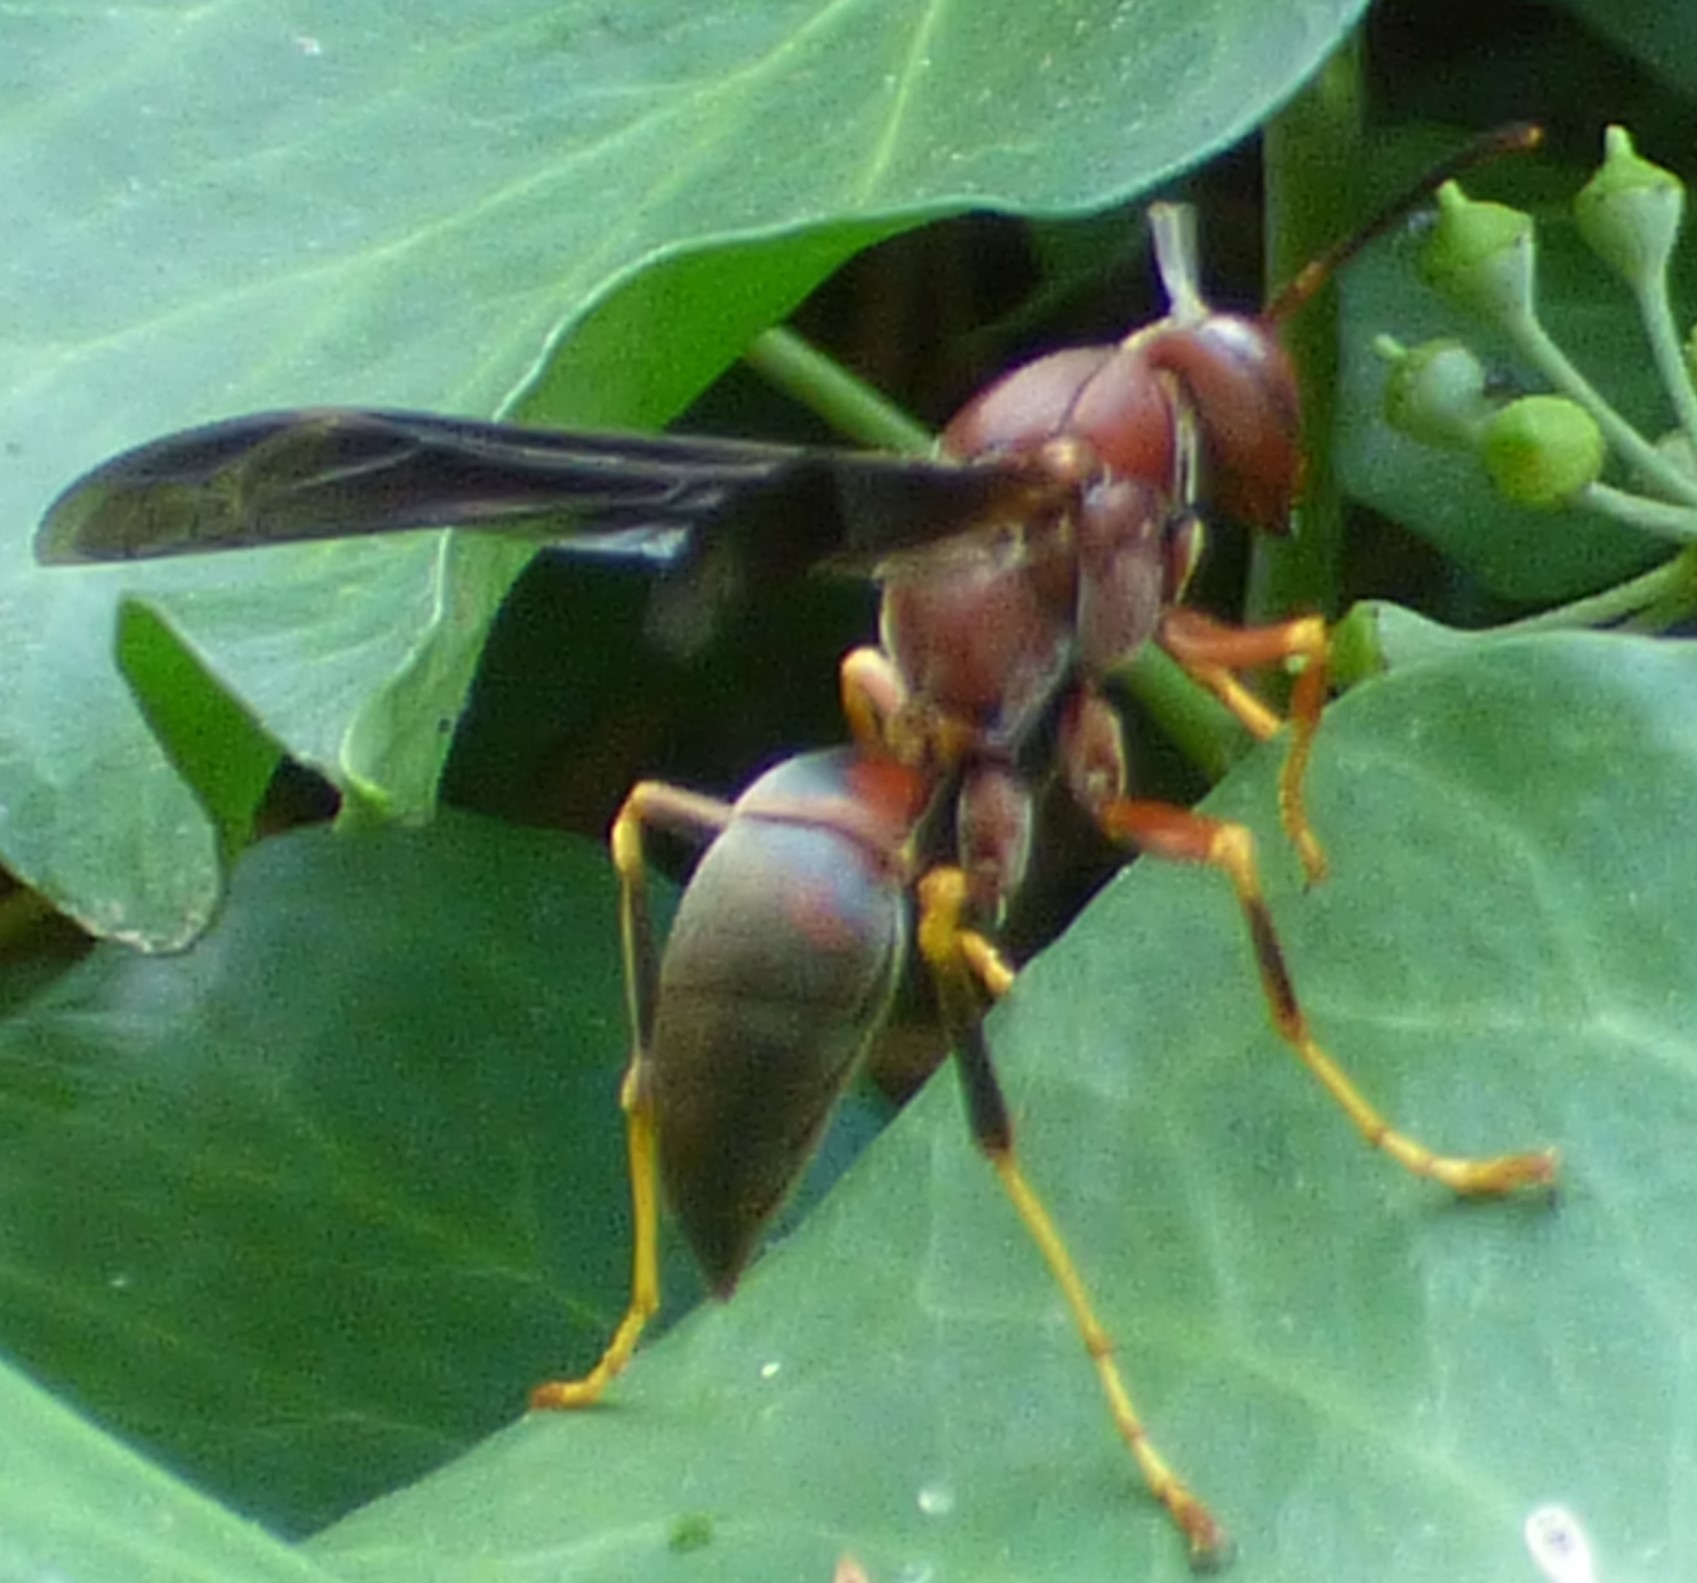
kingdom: Animalia
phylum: Arthropoda
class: Insecta
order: Hymenoptera
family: Eumenidae
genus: Polistes
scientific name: Polistes metricus
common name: Metric paper wasp
